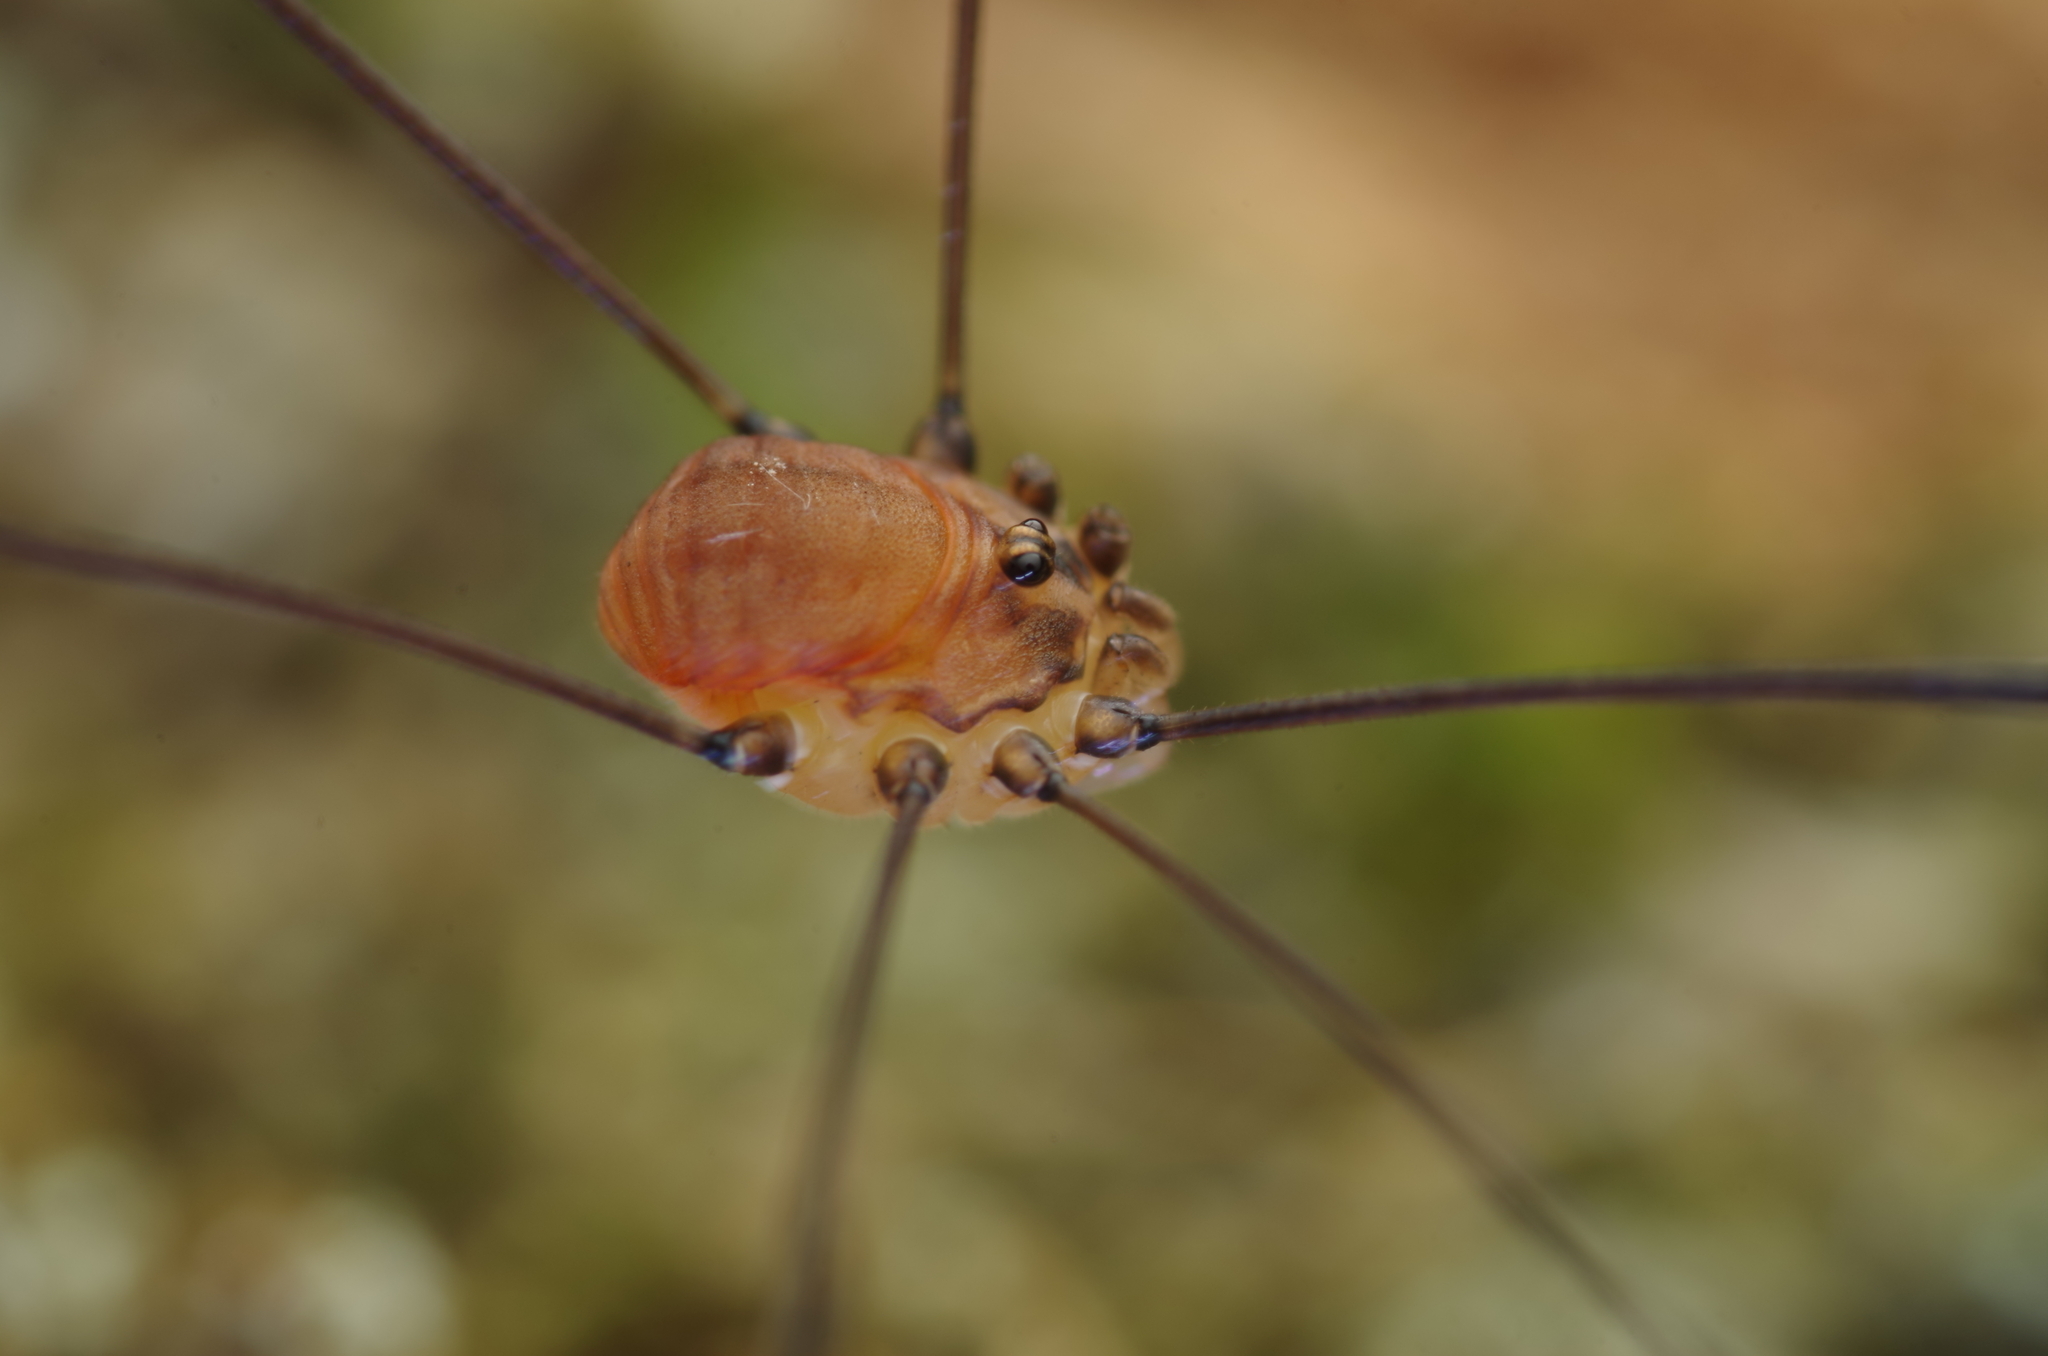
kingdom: Animalia
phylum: Arthropoda
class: Arachnida
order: Opiliones
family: Sclerosomatidae
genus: Leiobunum
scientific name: Leiobunum blackwalli
